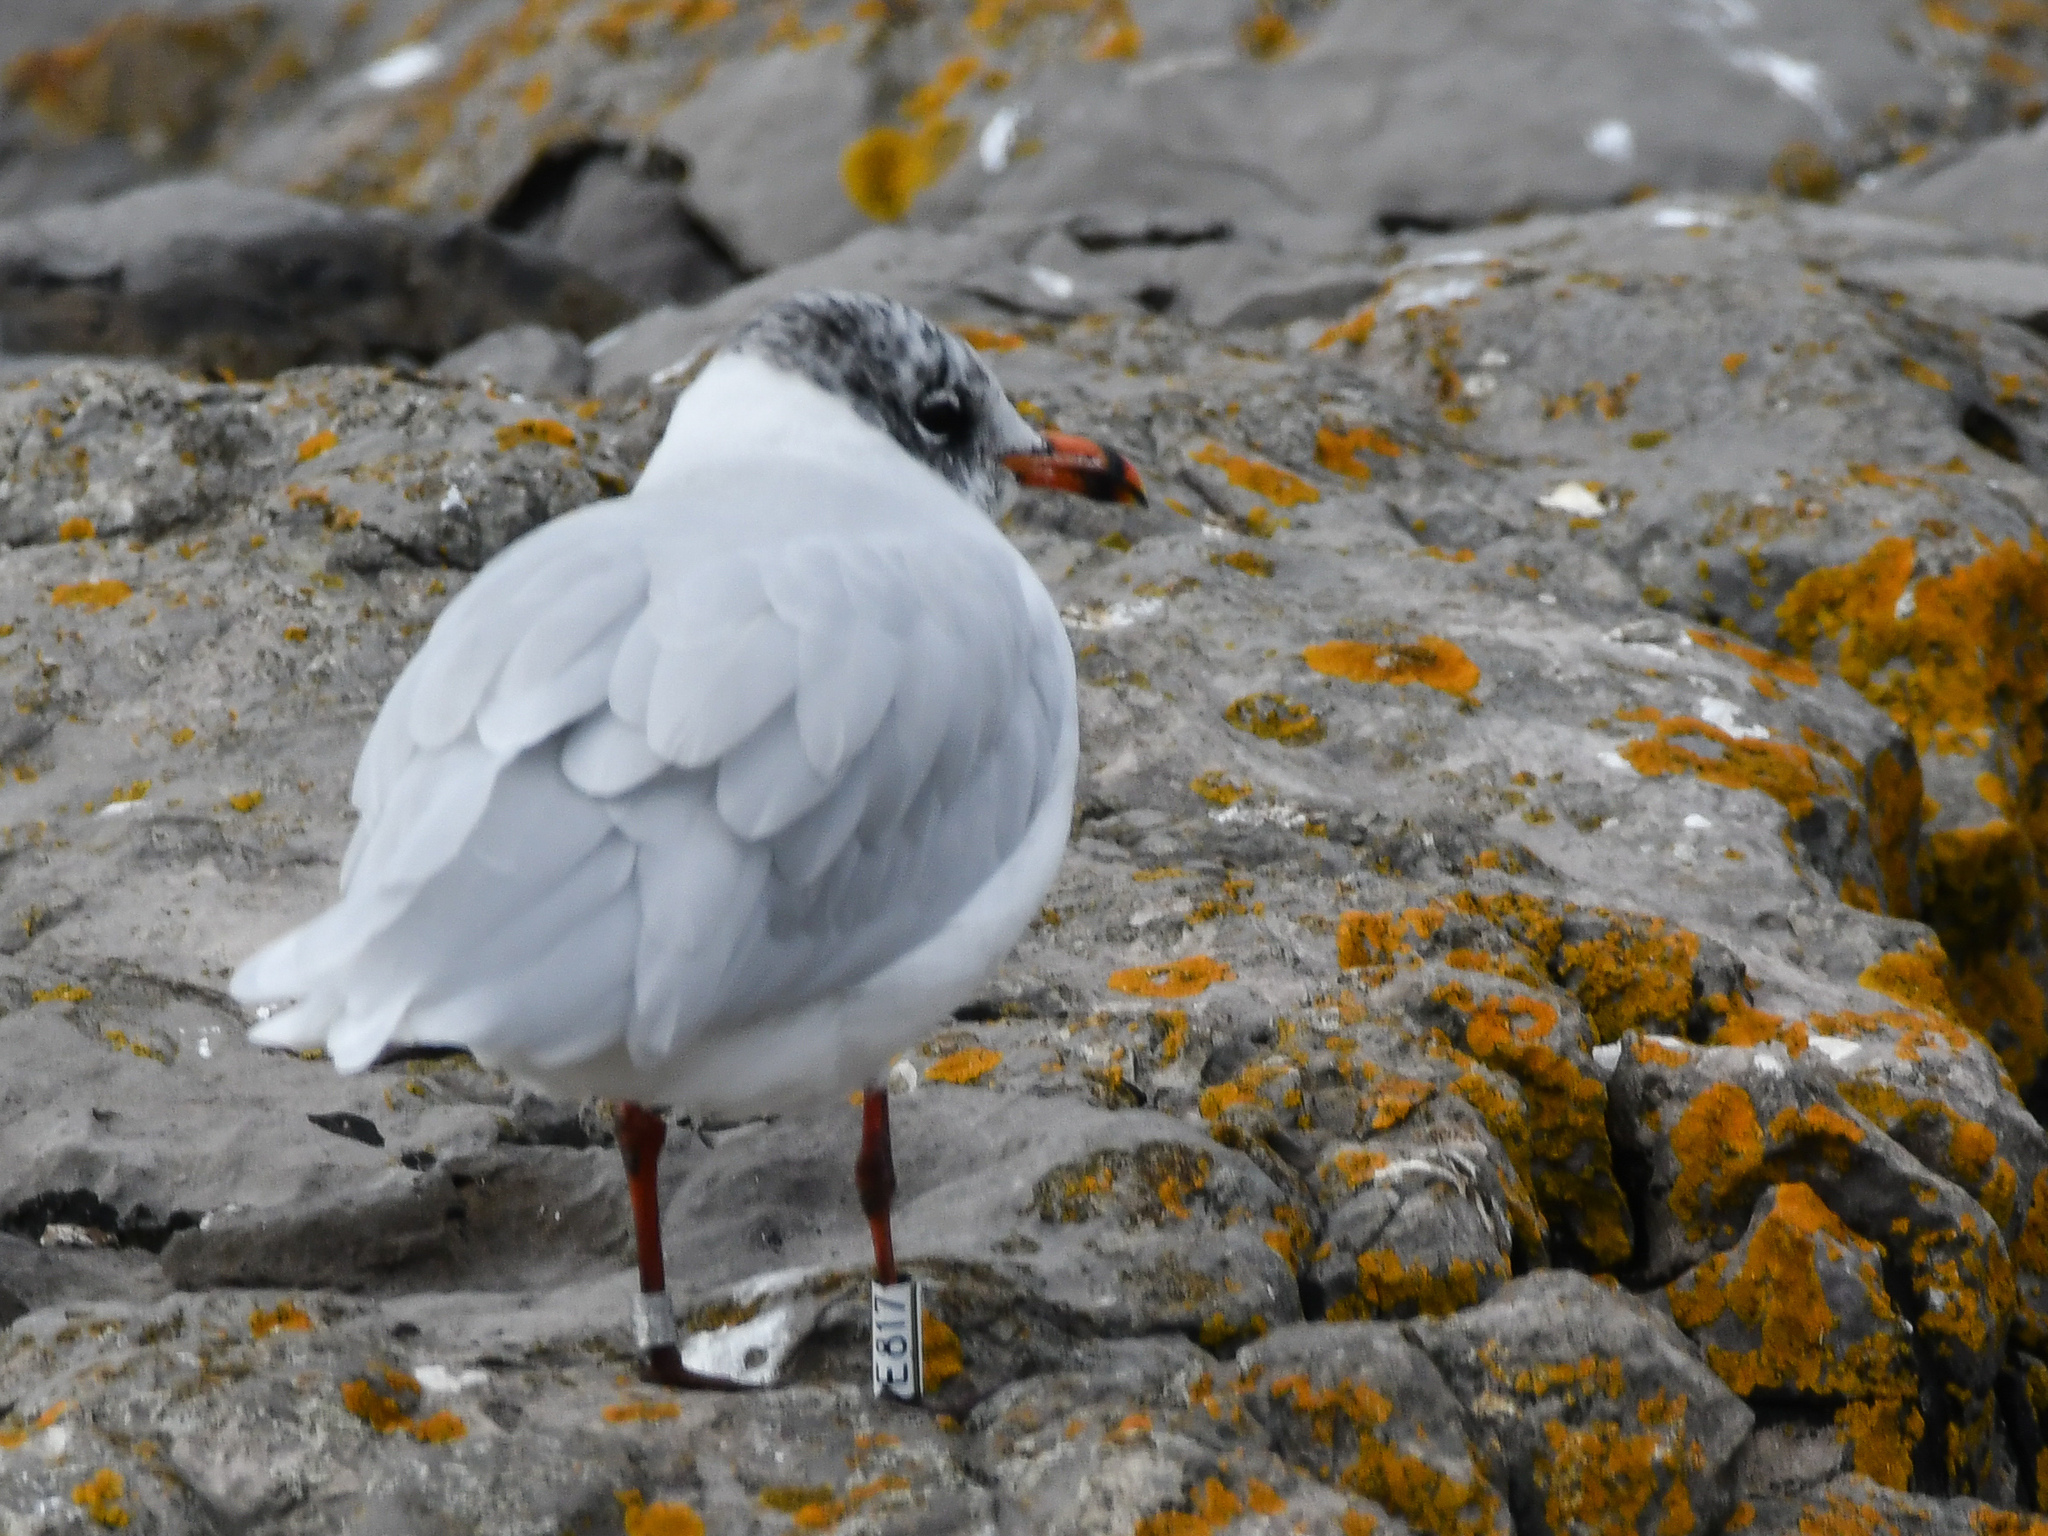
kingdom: Animalia
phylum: Chordata
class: Aves
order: Charadriiformes
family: Laridae
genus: Ichthyaetus
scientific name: Ichthyaetus melanocephalus
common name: Mediterranean gull
